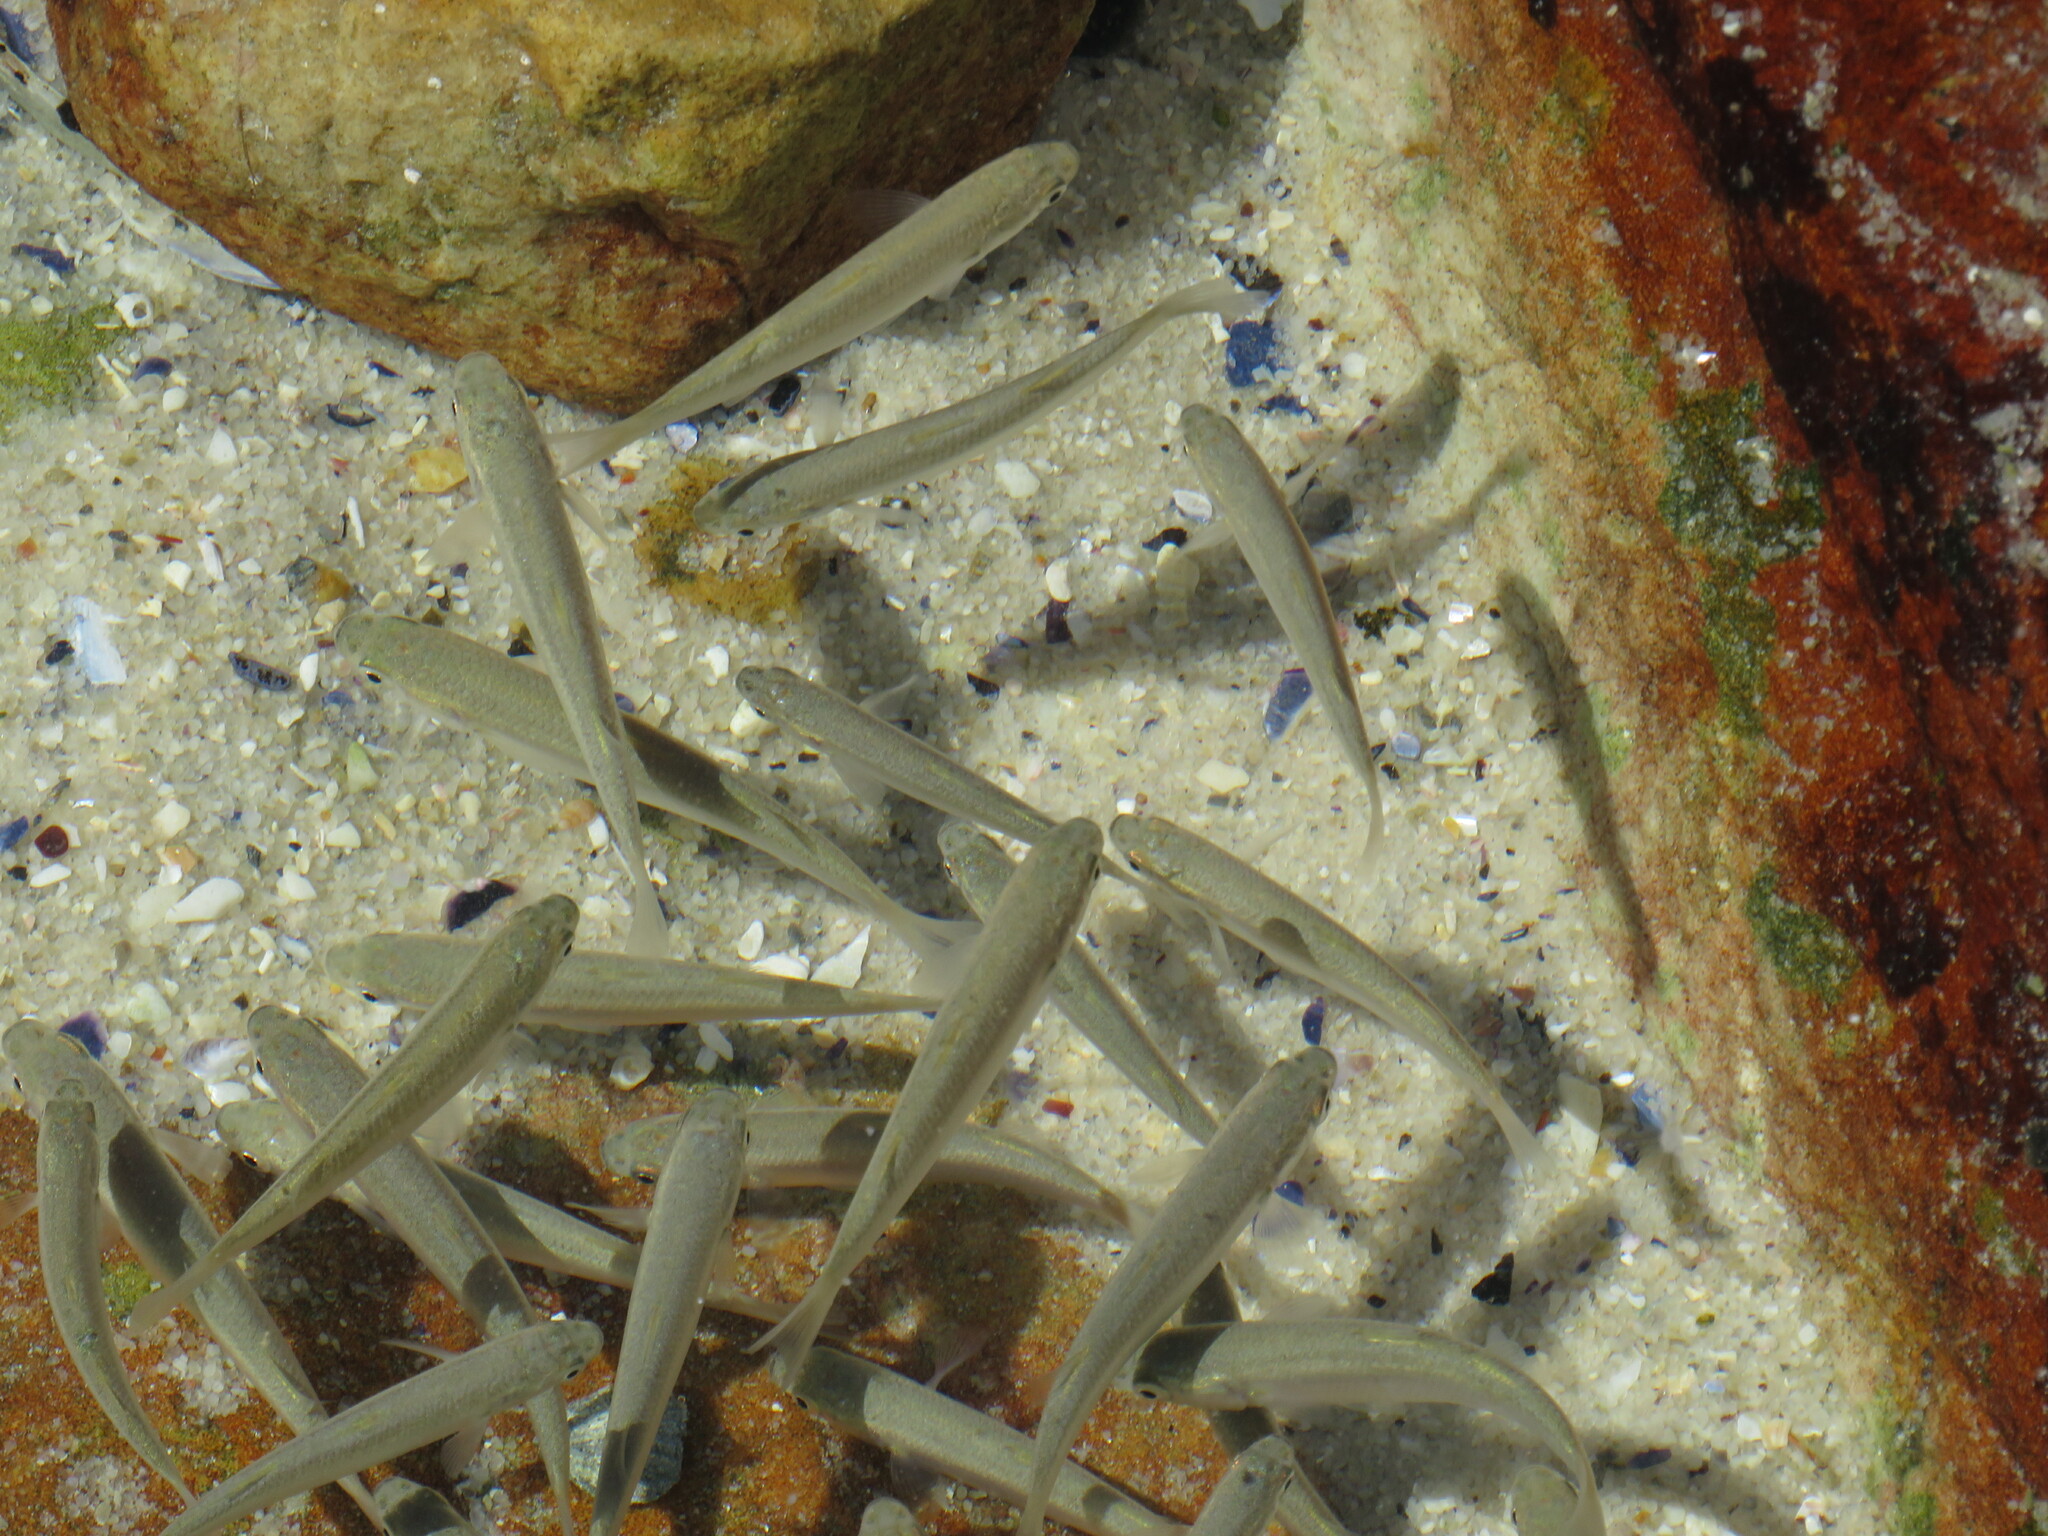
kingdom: Animalia
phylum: Chordata
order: Mugiliformes
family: Mugilidae
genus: Chelon
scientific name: Chelon richardsonii
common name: South african mullet
